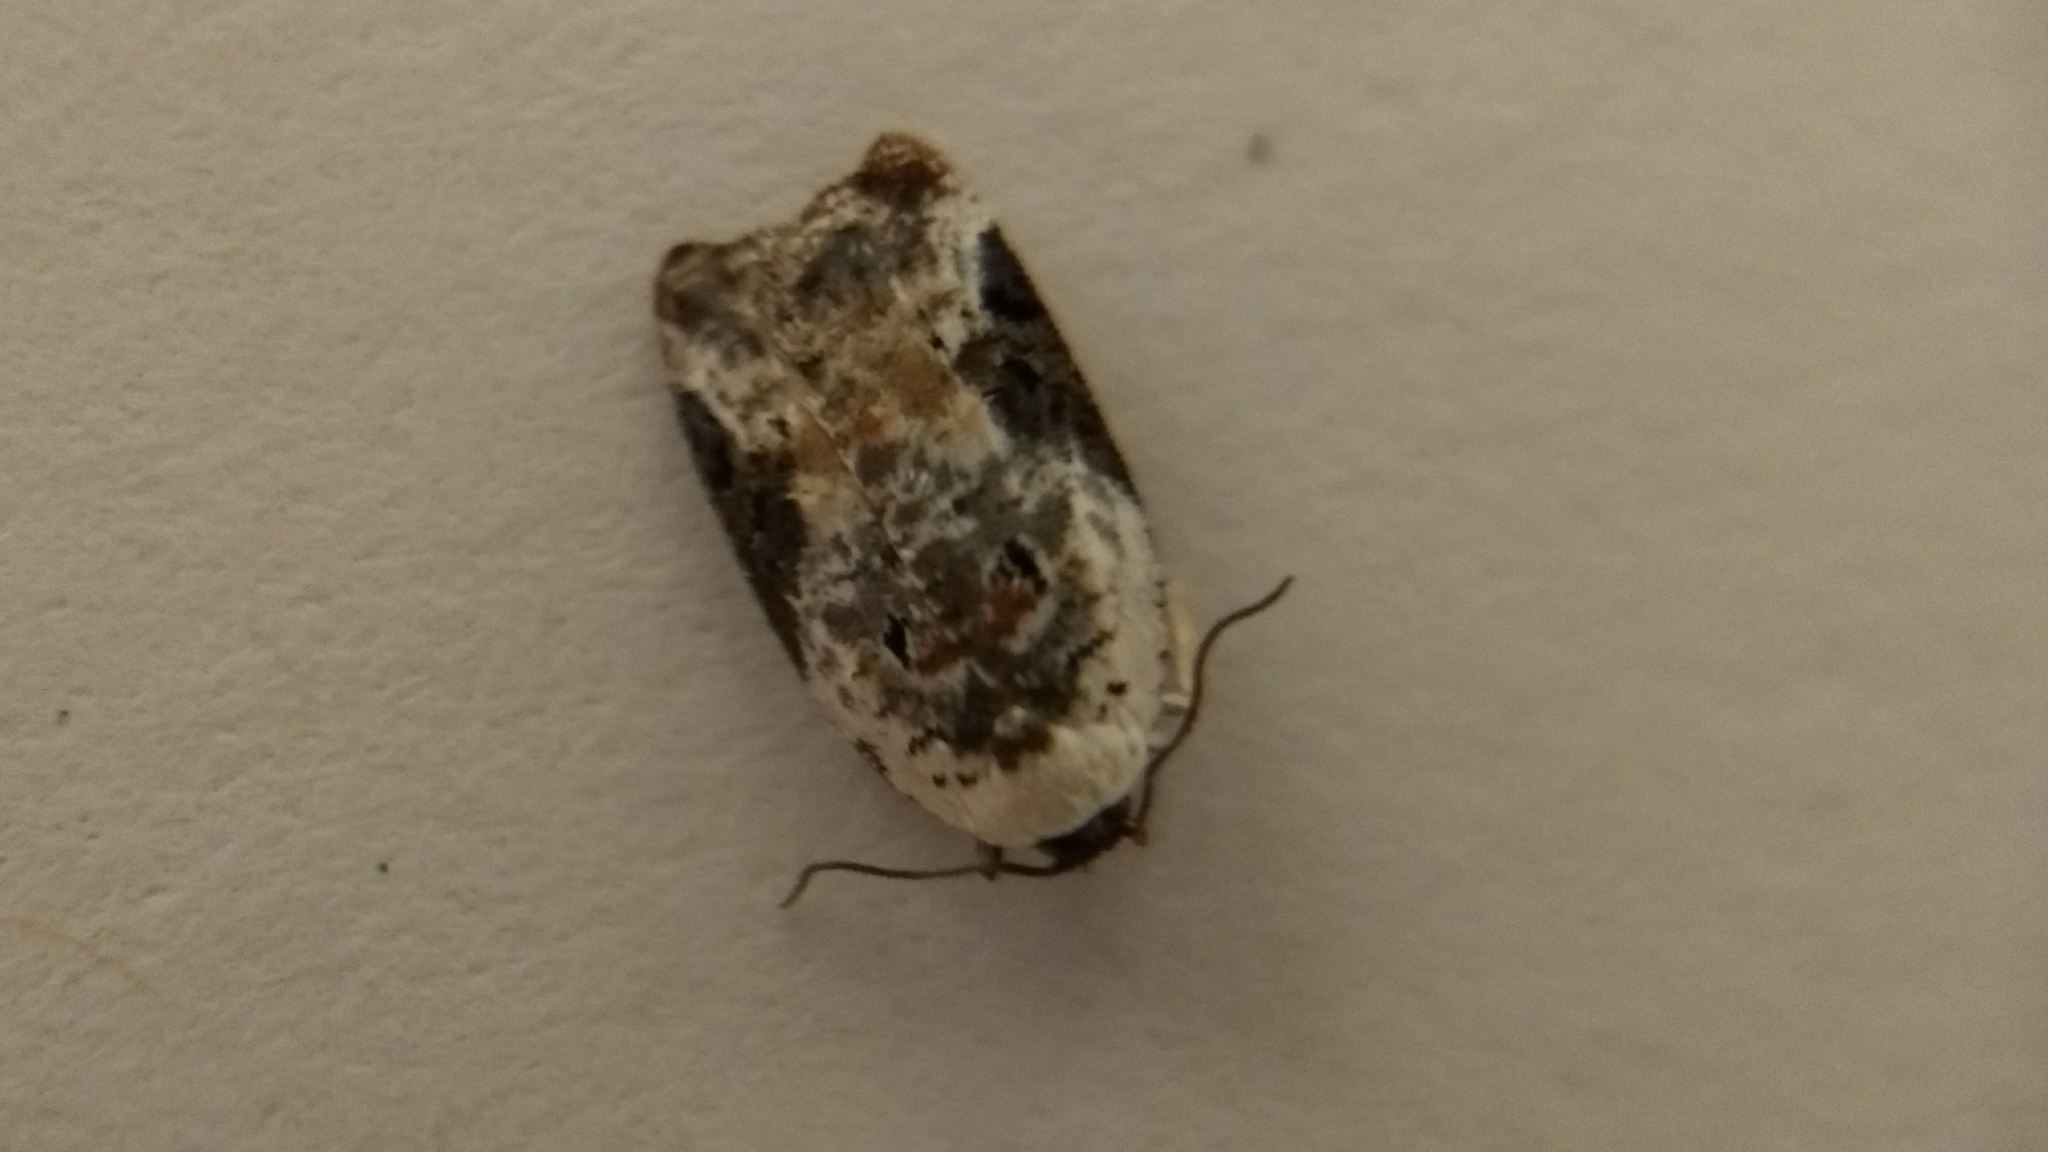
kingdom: Animalia
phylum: Arthropoda
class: Insecta
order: Lepidoptera
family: Tortricidae
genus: Acleris
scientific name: Acleris nivisellana
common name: Snowy-shouldered acleris moth
